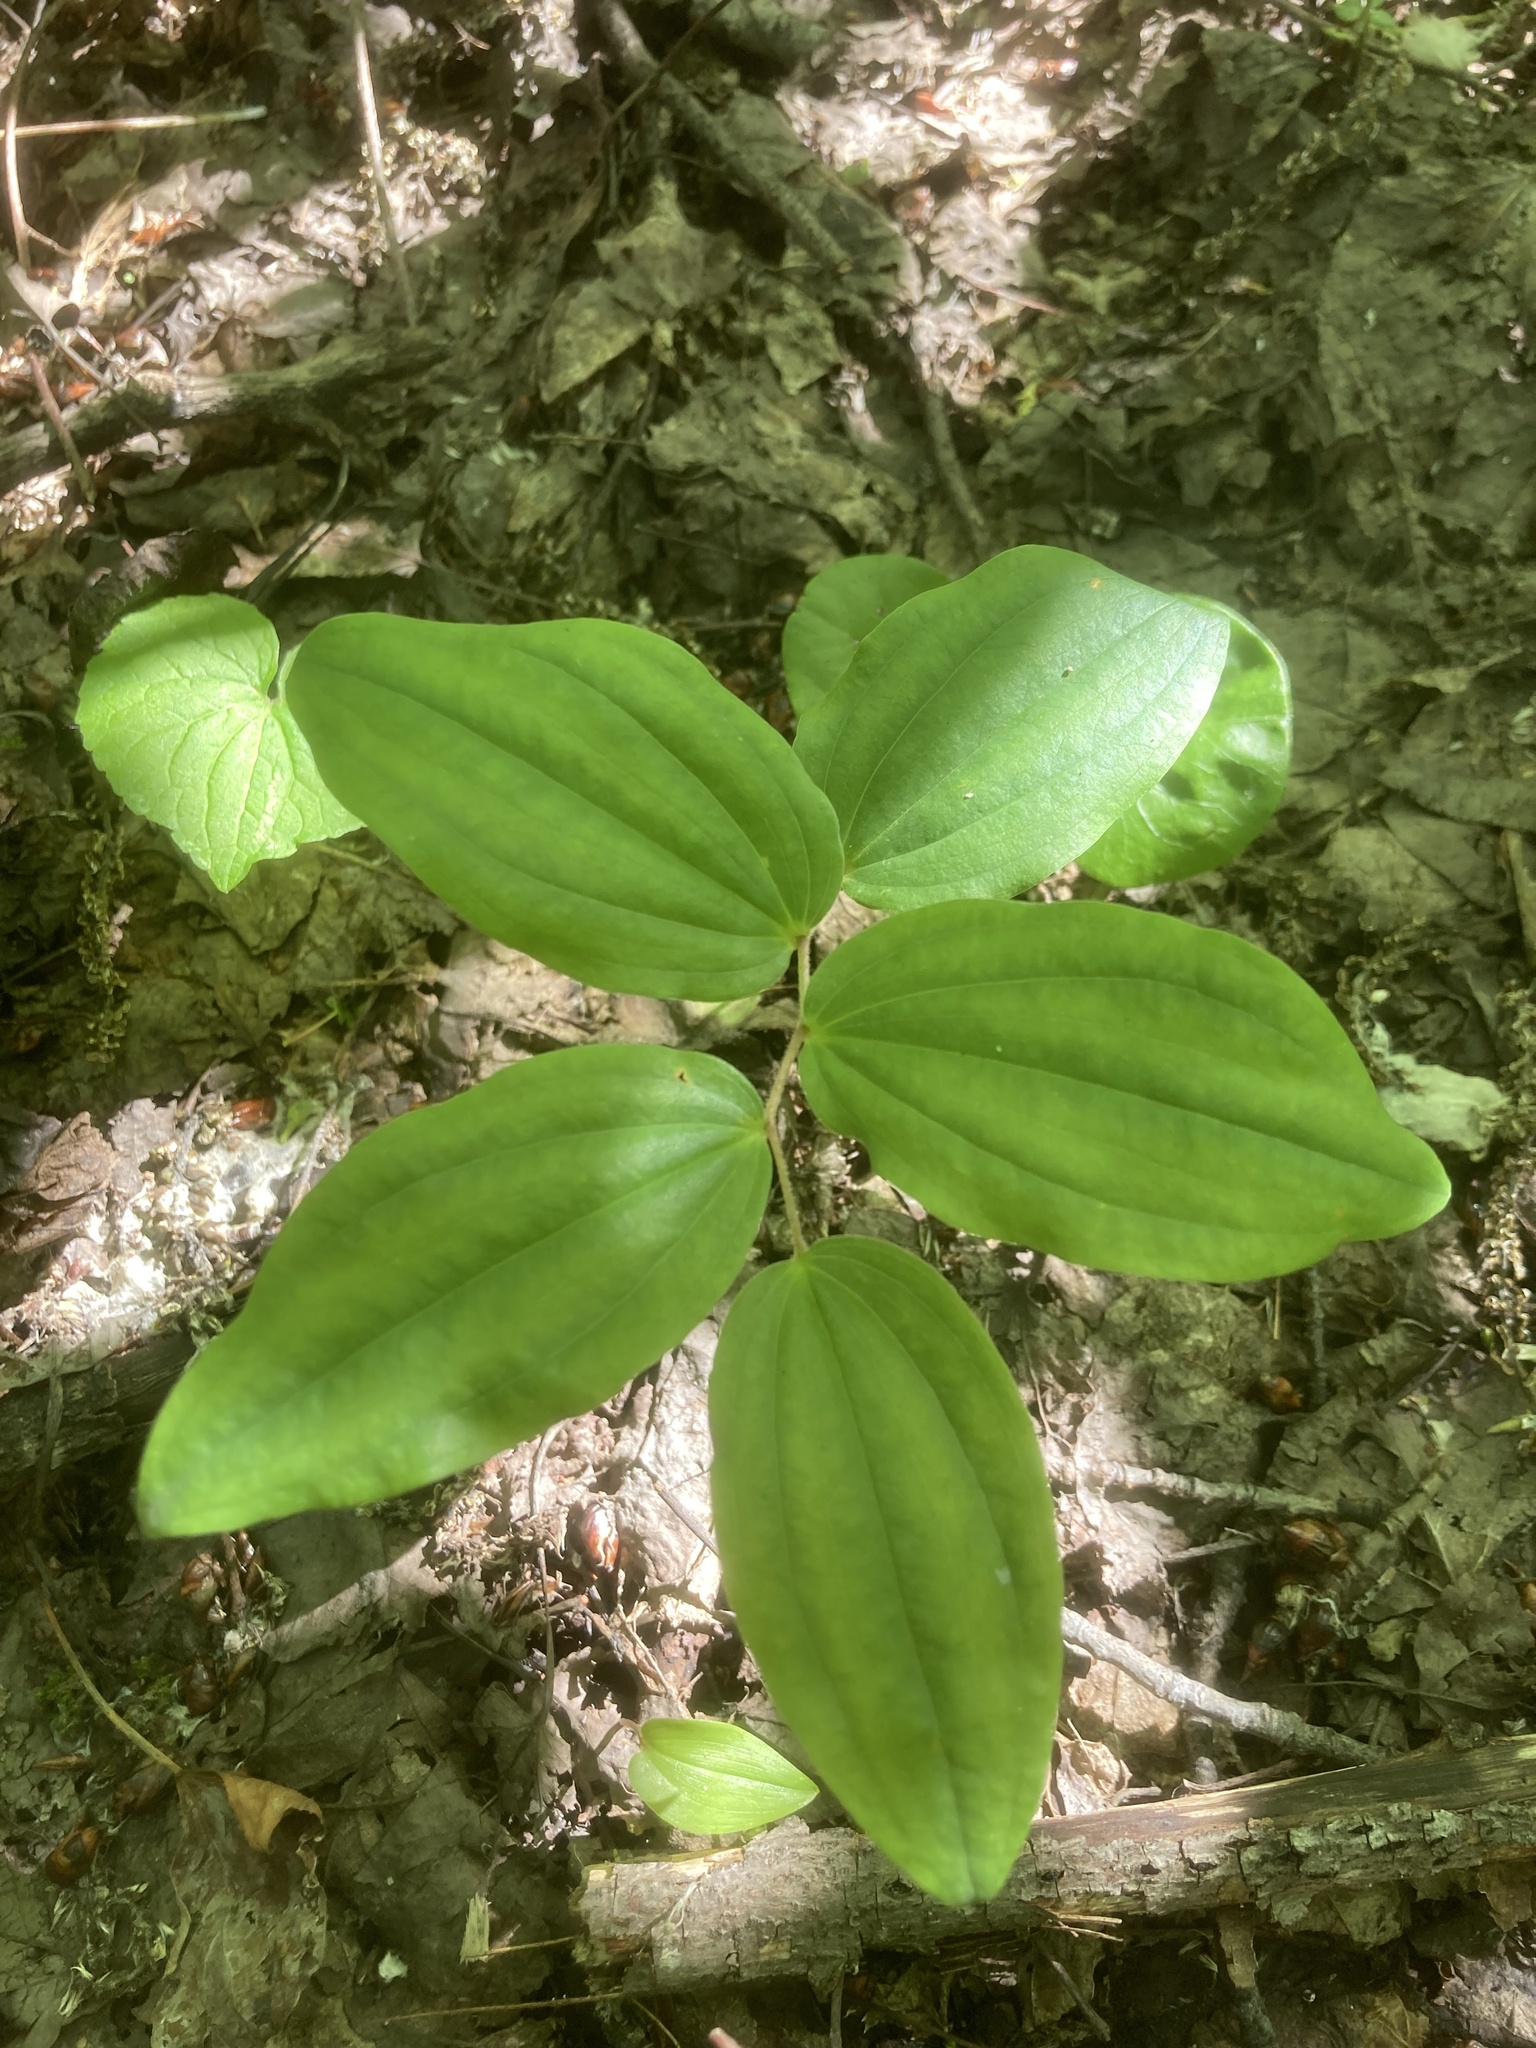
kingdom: Plantae
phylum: Tracheophyta
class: Liliopsida
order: Liliales
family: Liliaceae
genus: Prosartes
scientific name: Prosartes trachycarpa
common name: Rough-fruit fairy-bells
